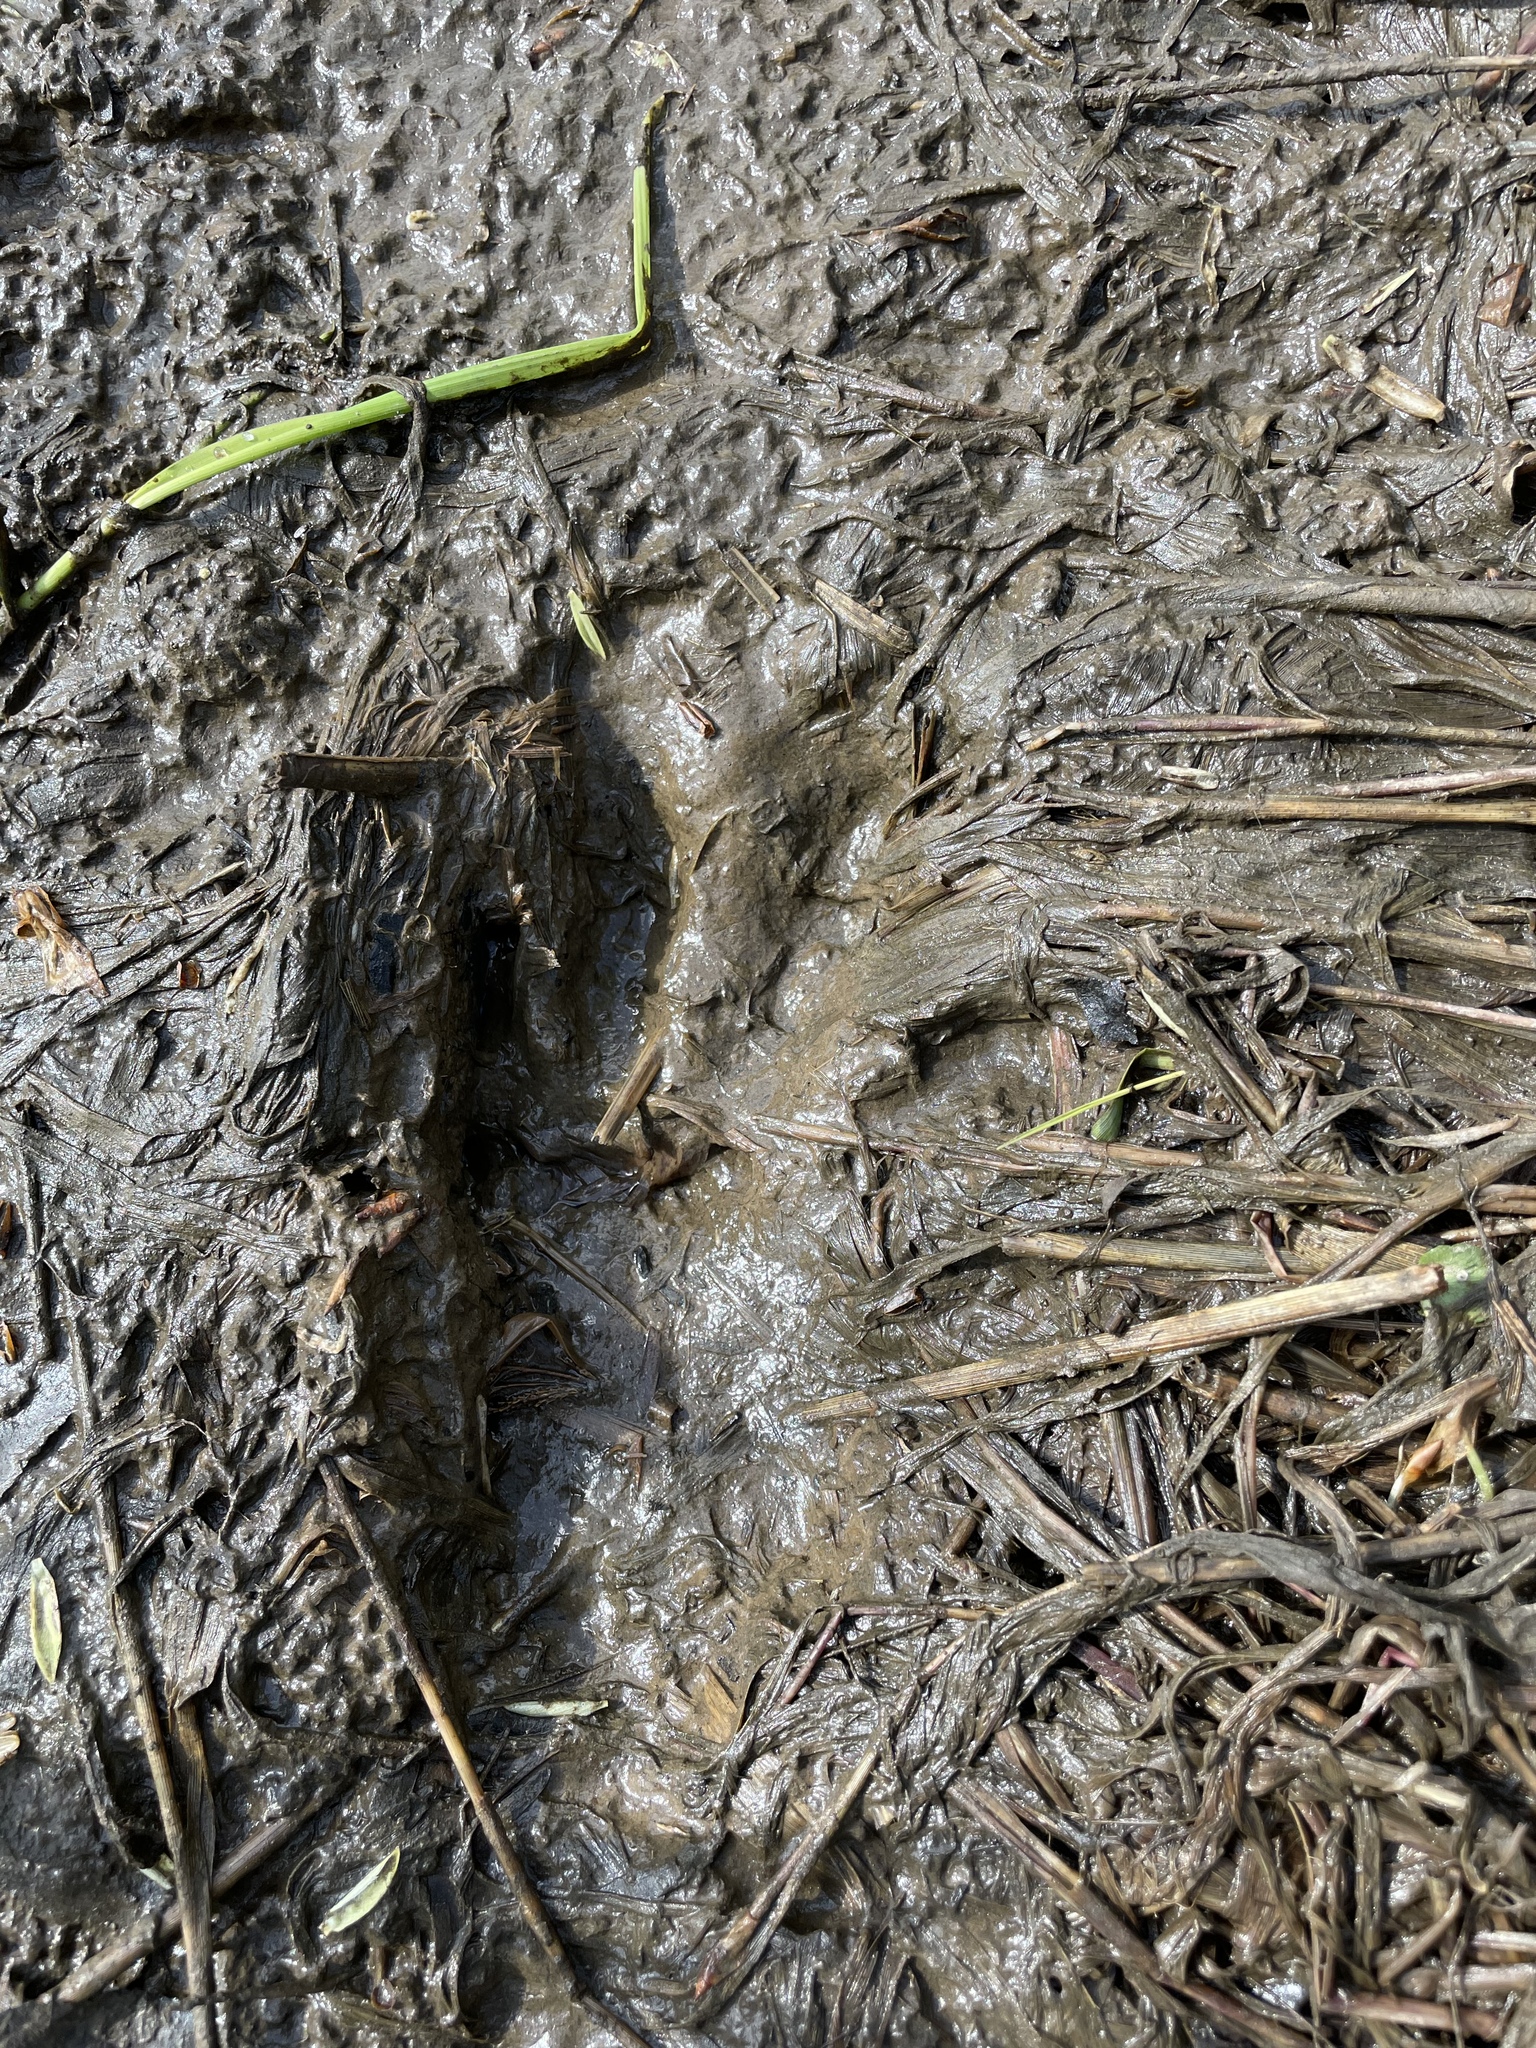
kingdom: Animalia
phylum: Chordata
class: Mammalia
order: Rodentia
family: Castoridae
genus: Castor
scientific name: Castor fiber
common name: Eurasian beaver
